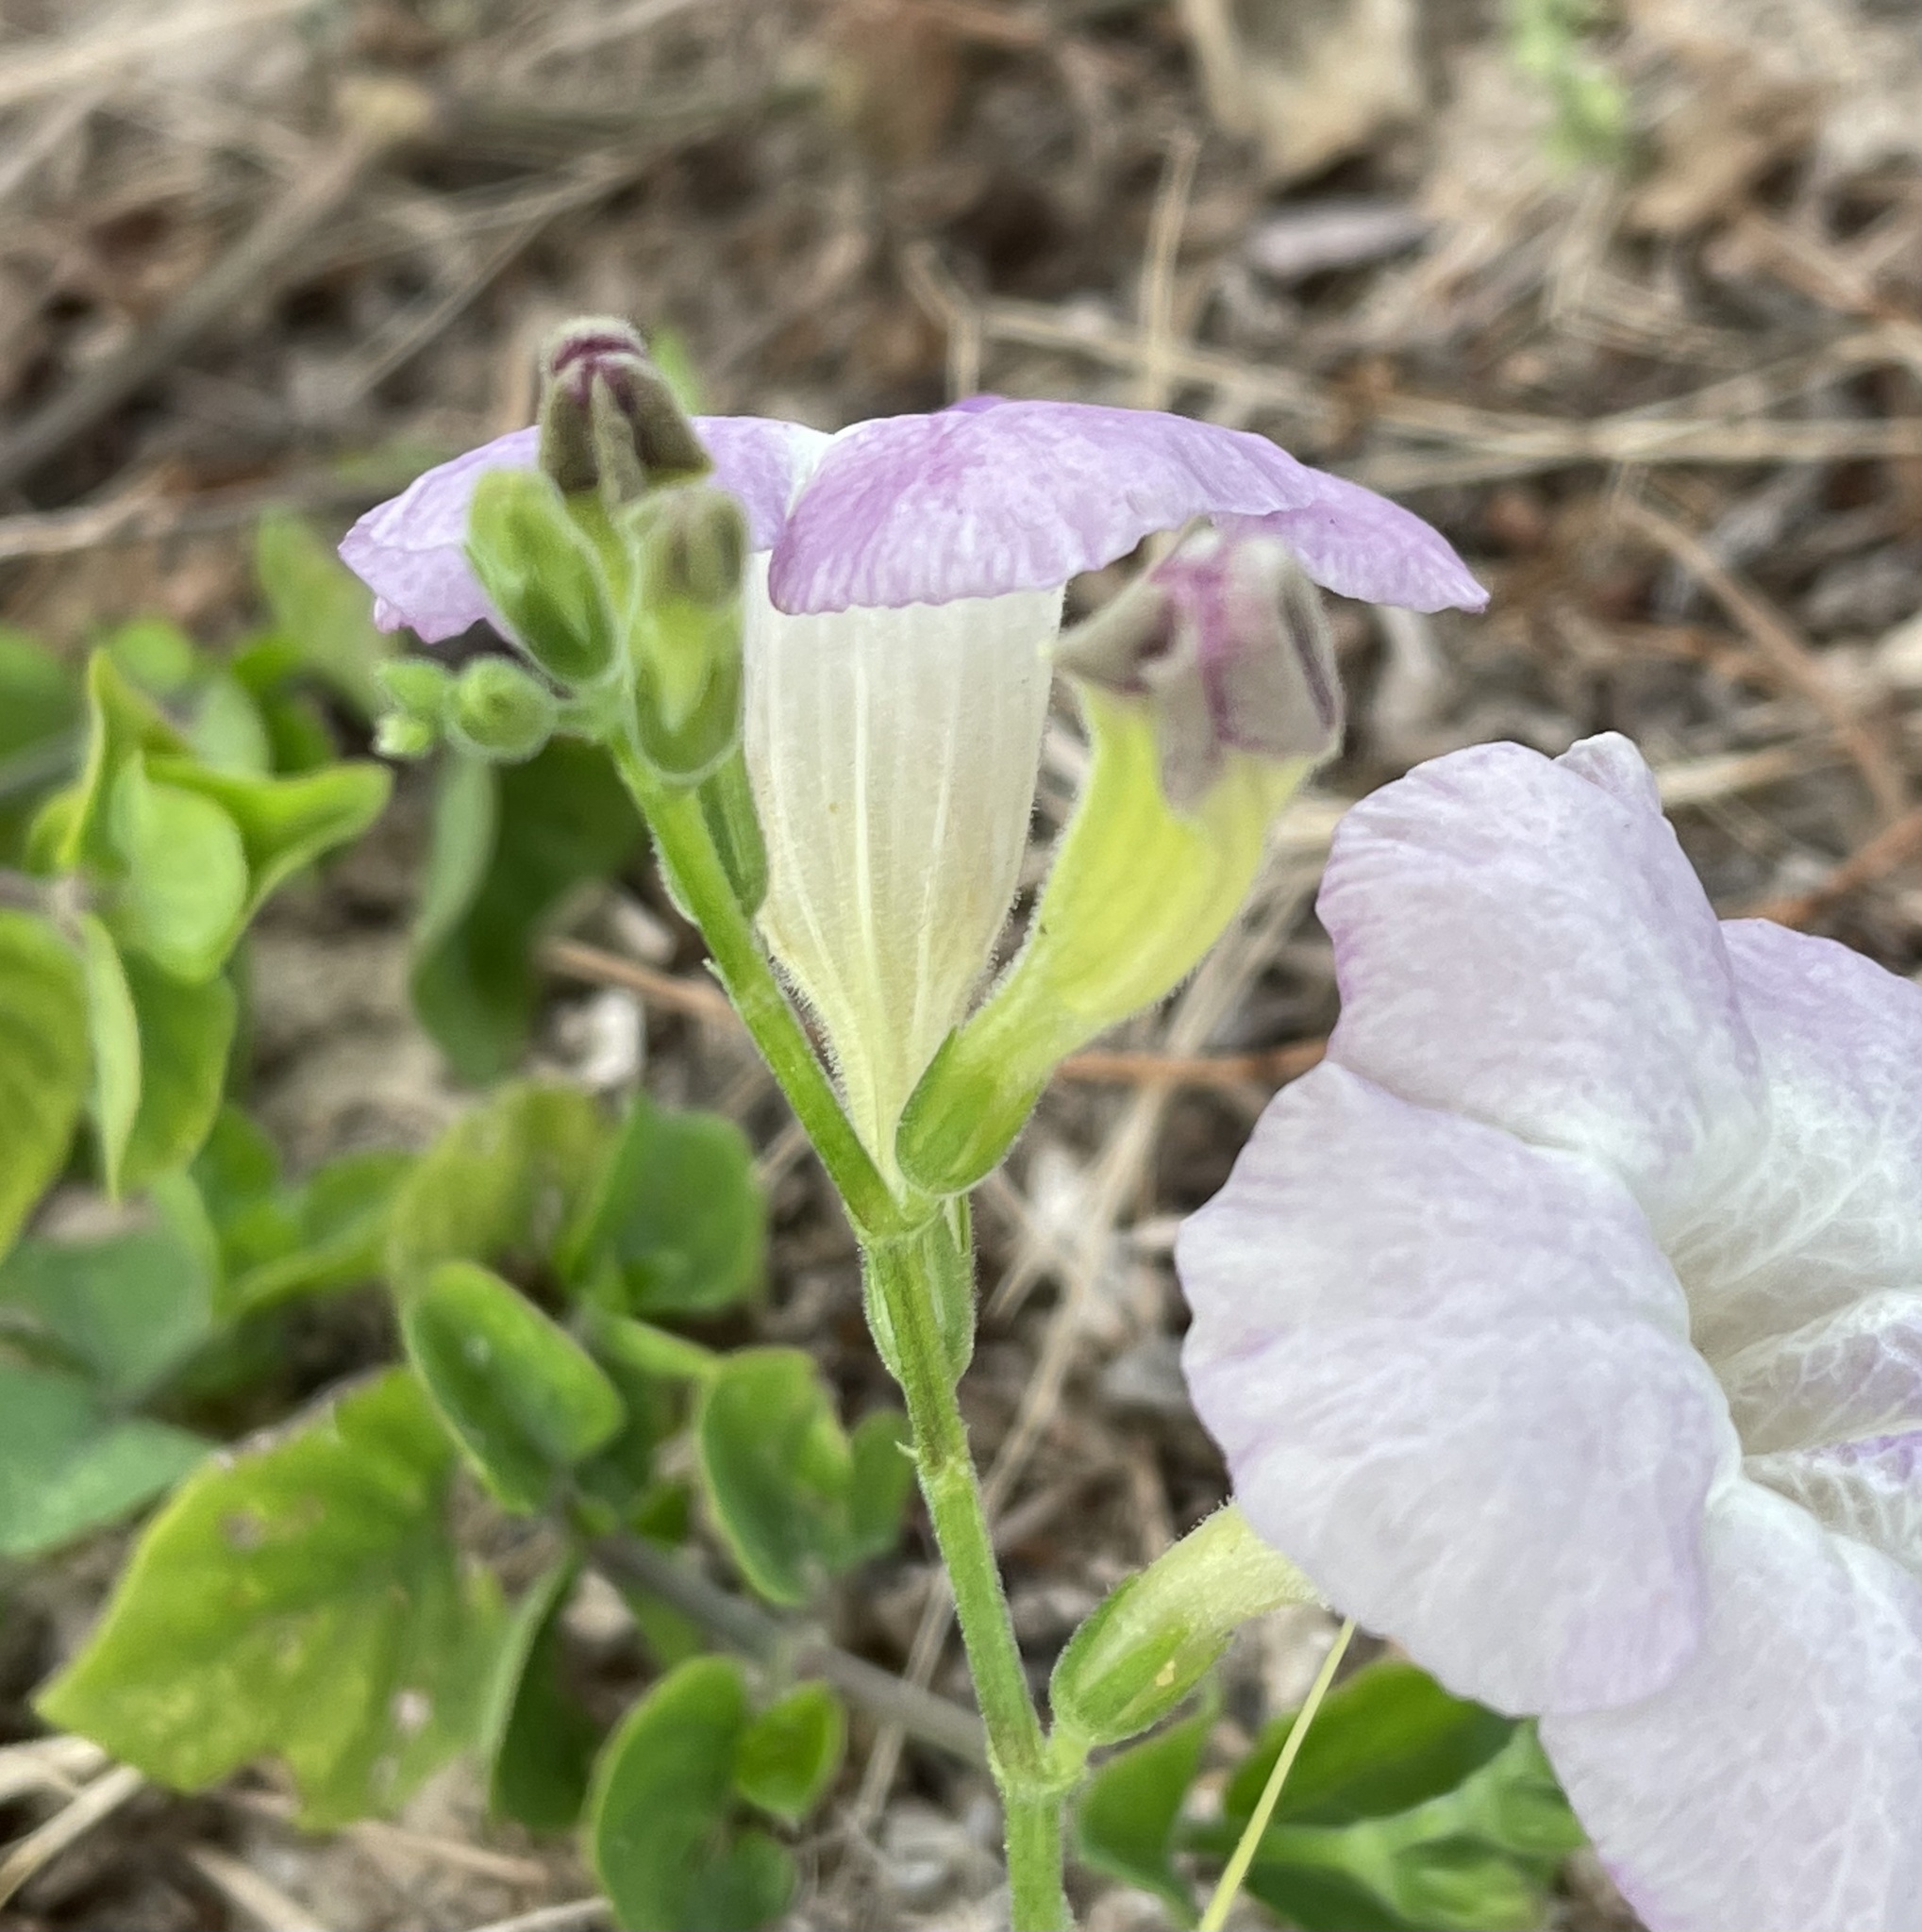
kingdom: Plantae
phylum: Tracheophyta
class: Magnoliopsida
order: Lamiales
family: Acanthaceae
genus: Asystasia
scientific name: Asystasia gangetica
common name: Chinese violet
